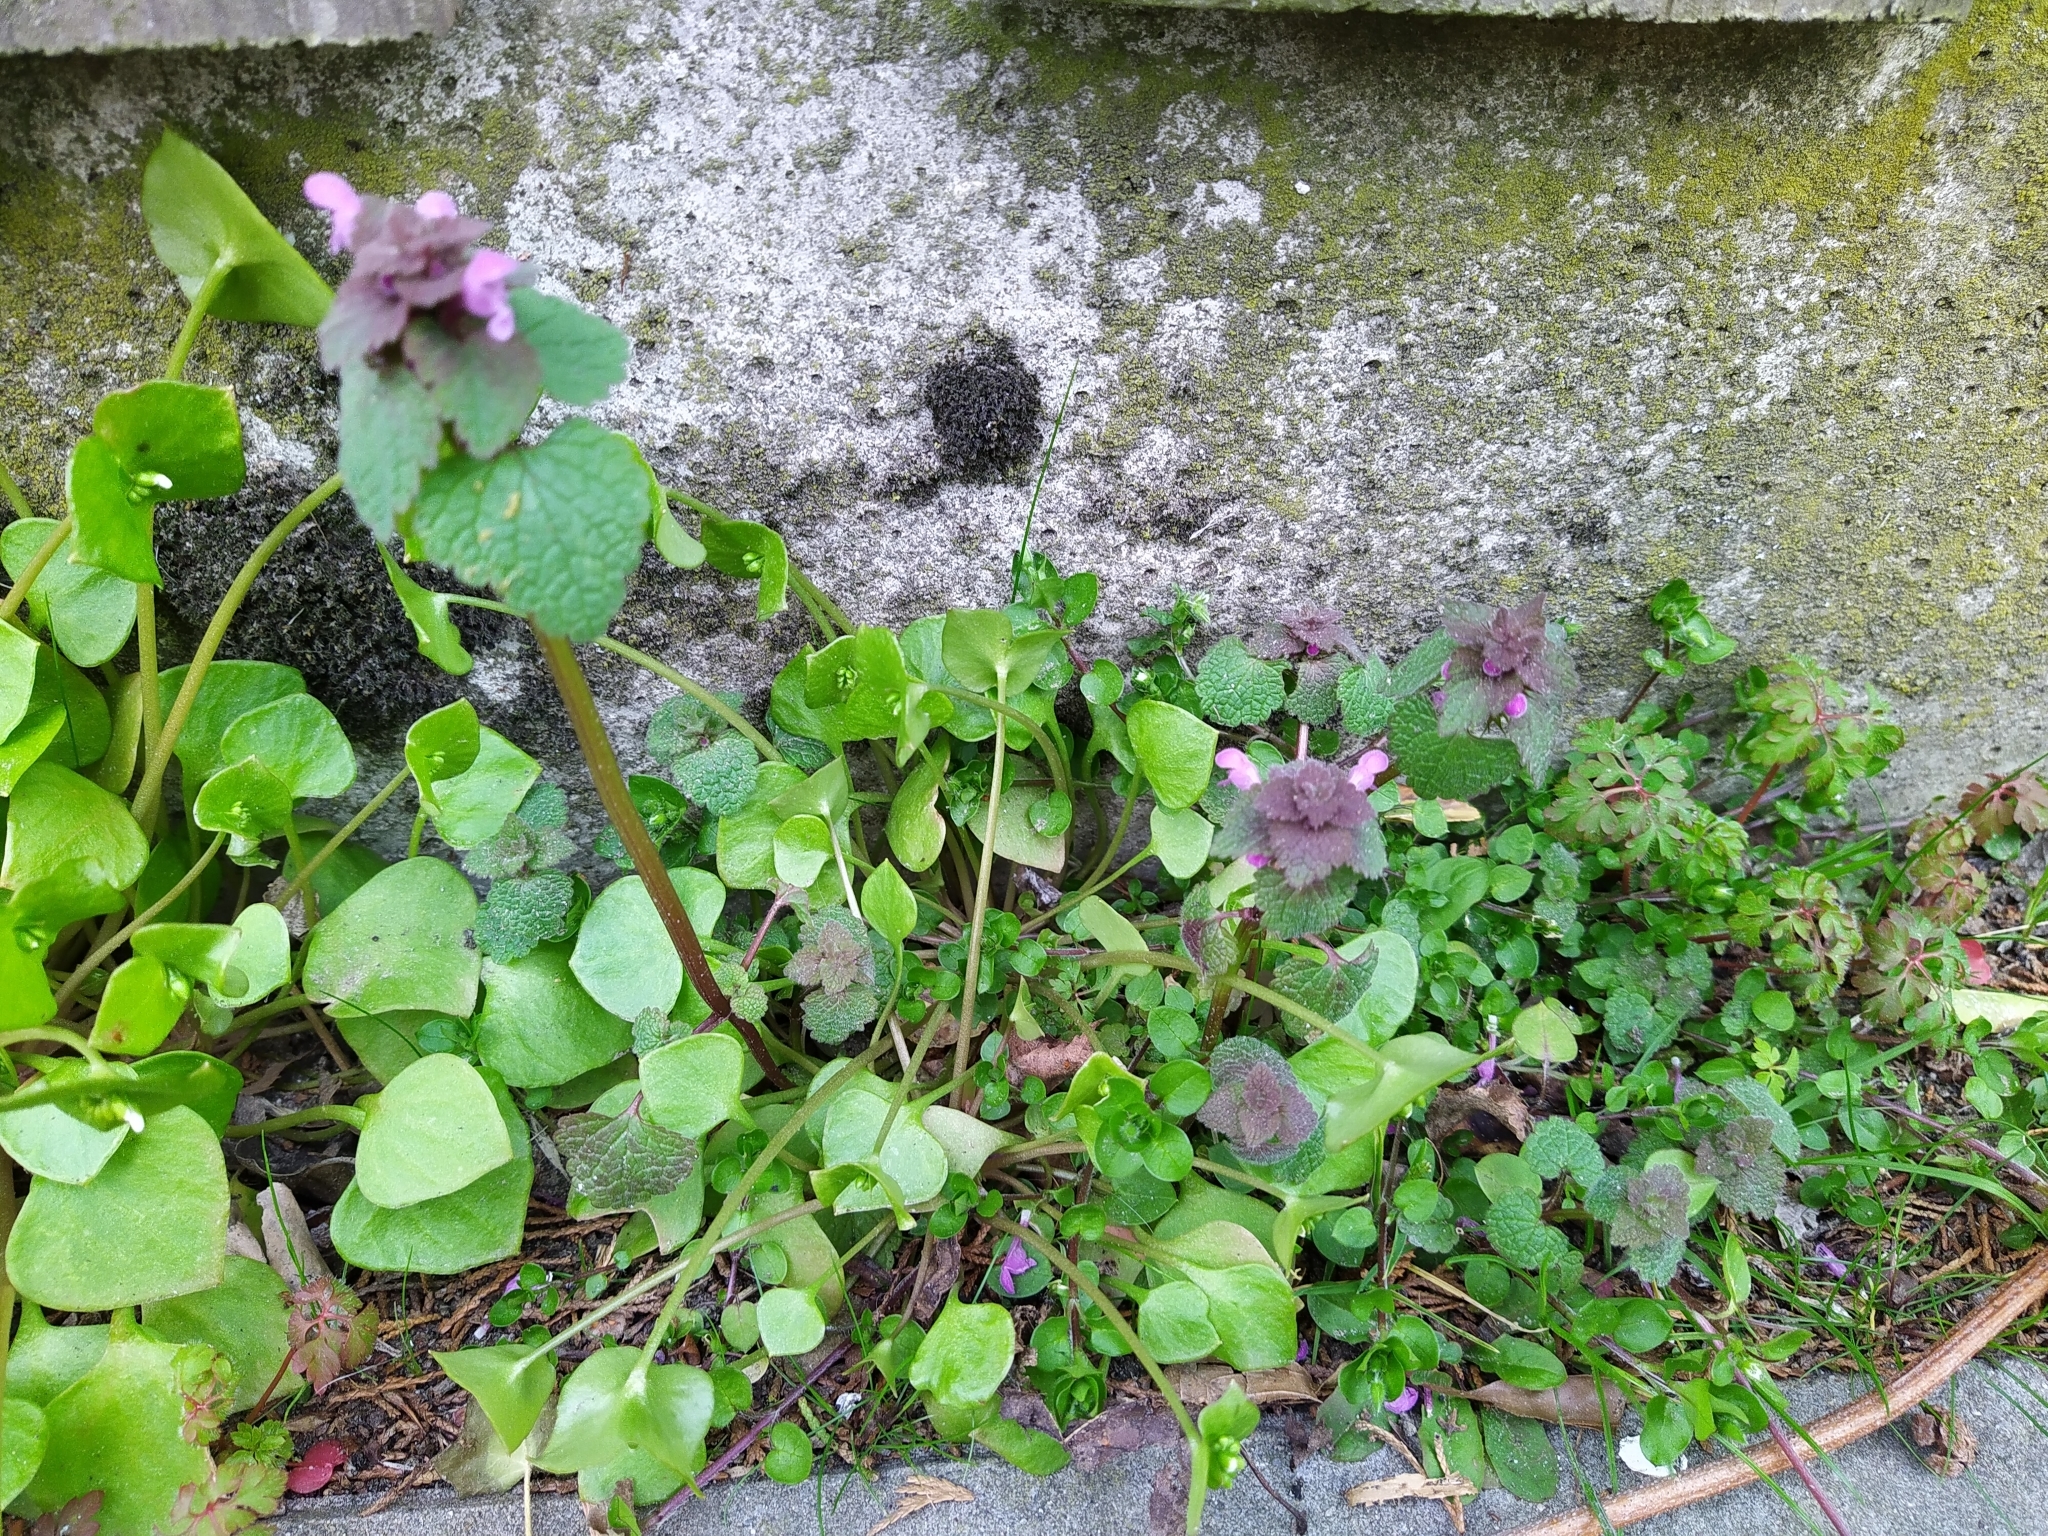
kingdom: Plantae
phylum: Tracheophyta
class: Magnoliopsida
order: Lamiales
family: Lamiaceae
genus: Lamium
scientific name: Lamium purpureum
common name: Red dead-nettle
